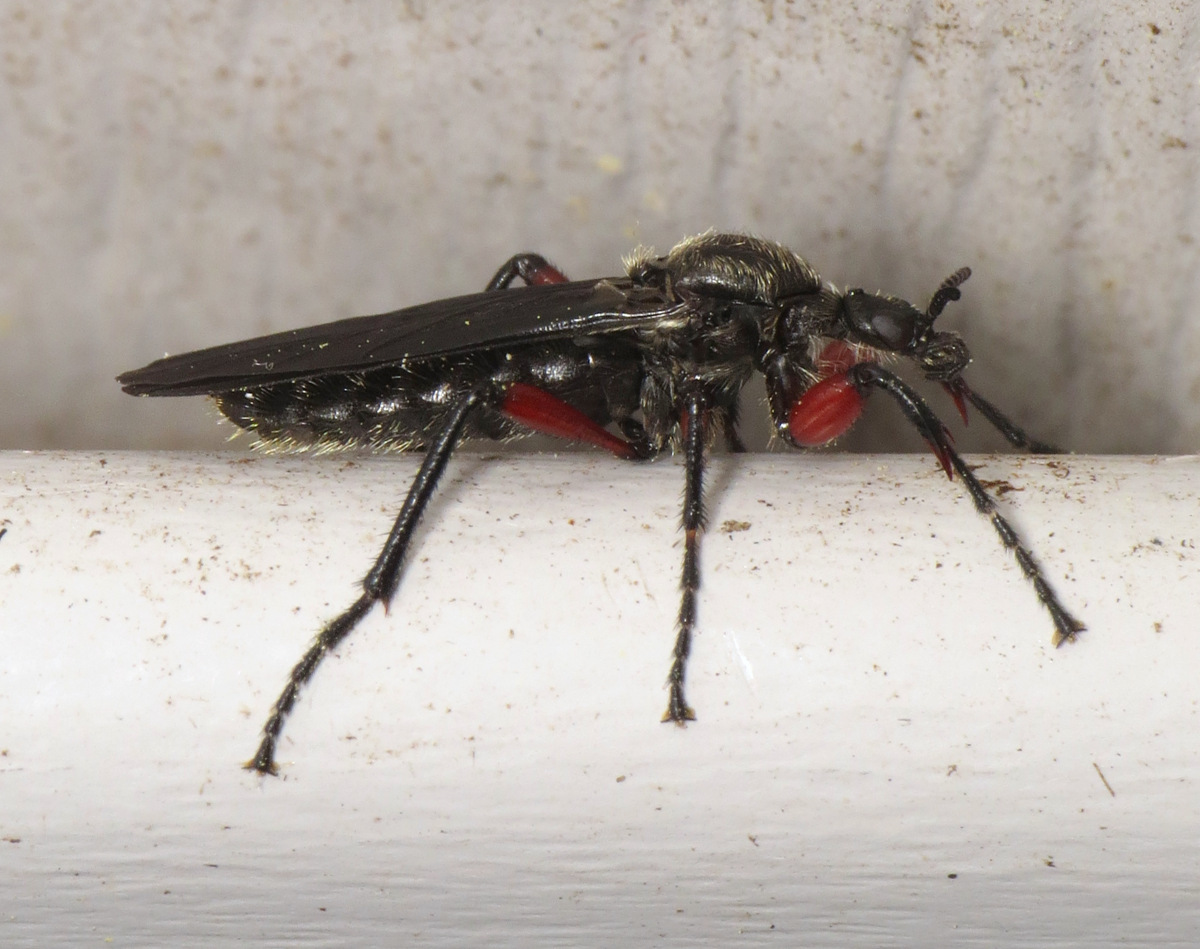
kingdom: Animalia
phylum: Arthropoda
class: Insecta
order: Diptera
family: Bibionidae
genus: Bibio
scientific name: Bibio femoratus
